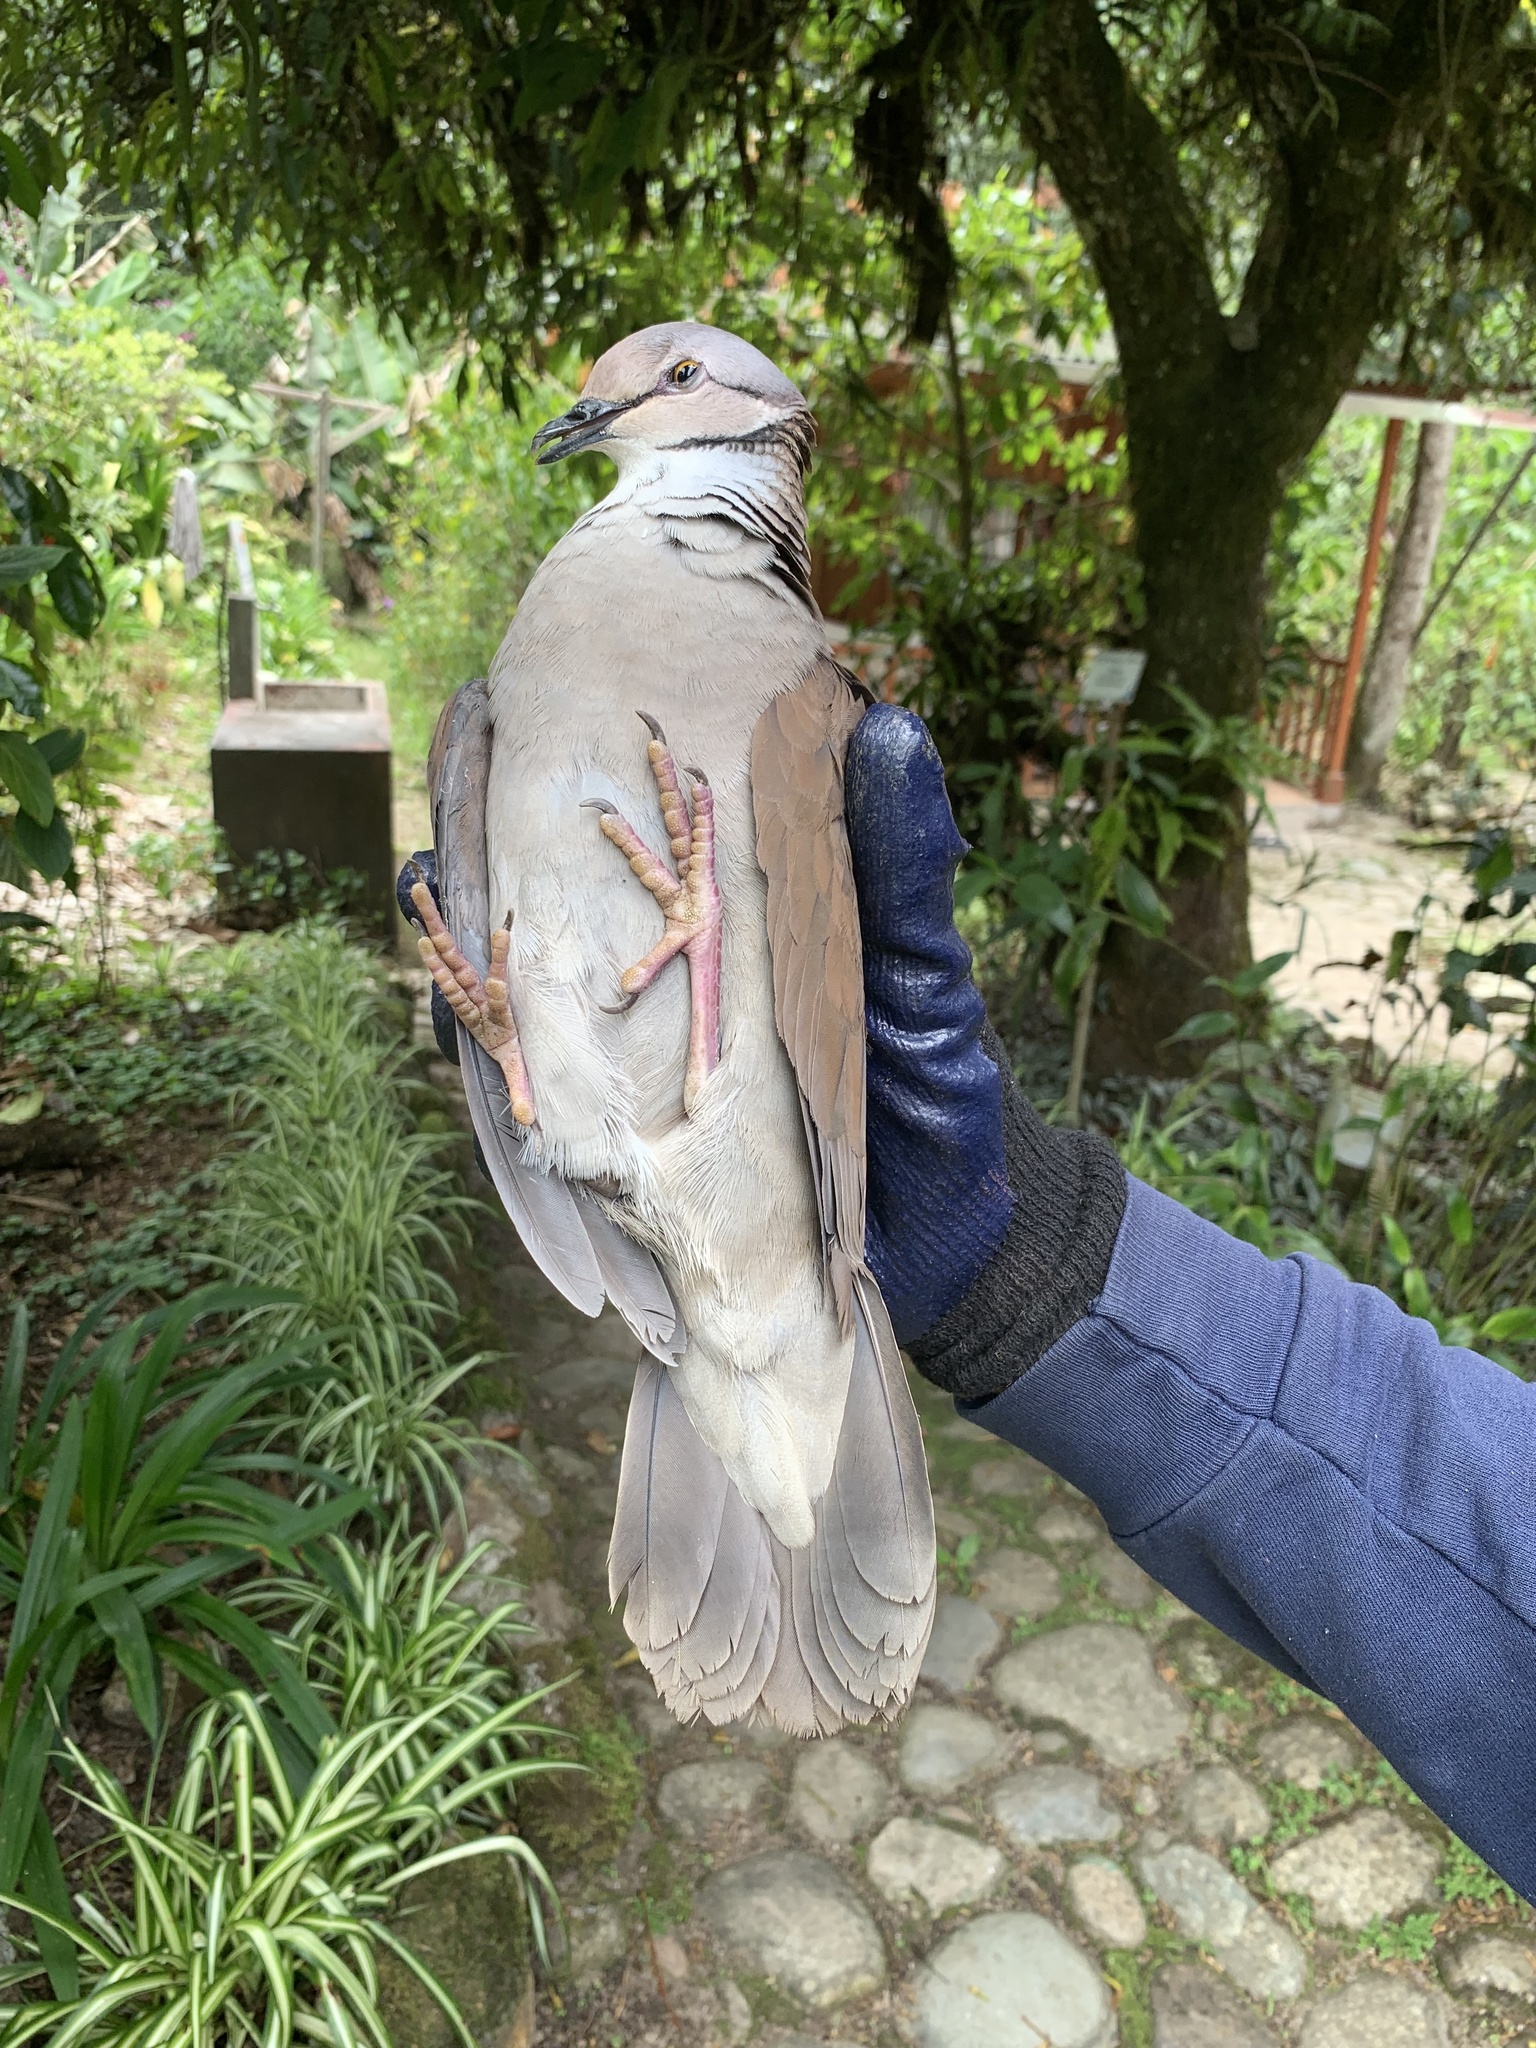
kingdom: Animalia
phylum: Chordata
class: Aves
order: Columbiformes
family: Columbidae
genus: Zentrygon
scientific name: Zentrygon frenata
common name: White-throated quail-dove
